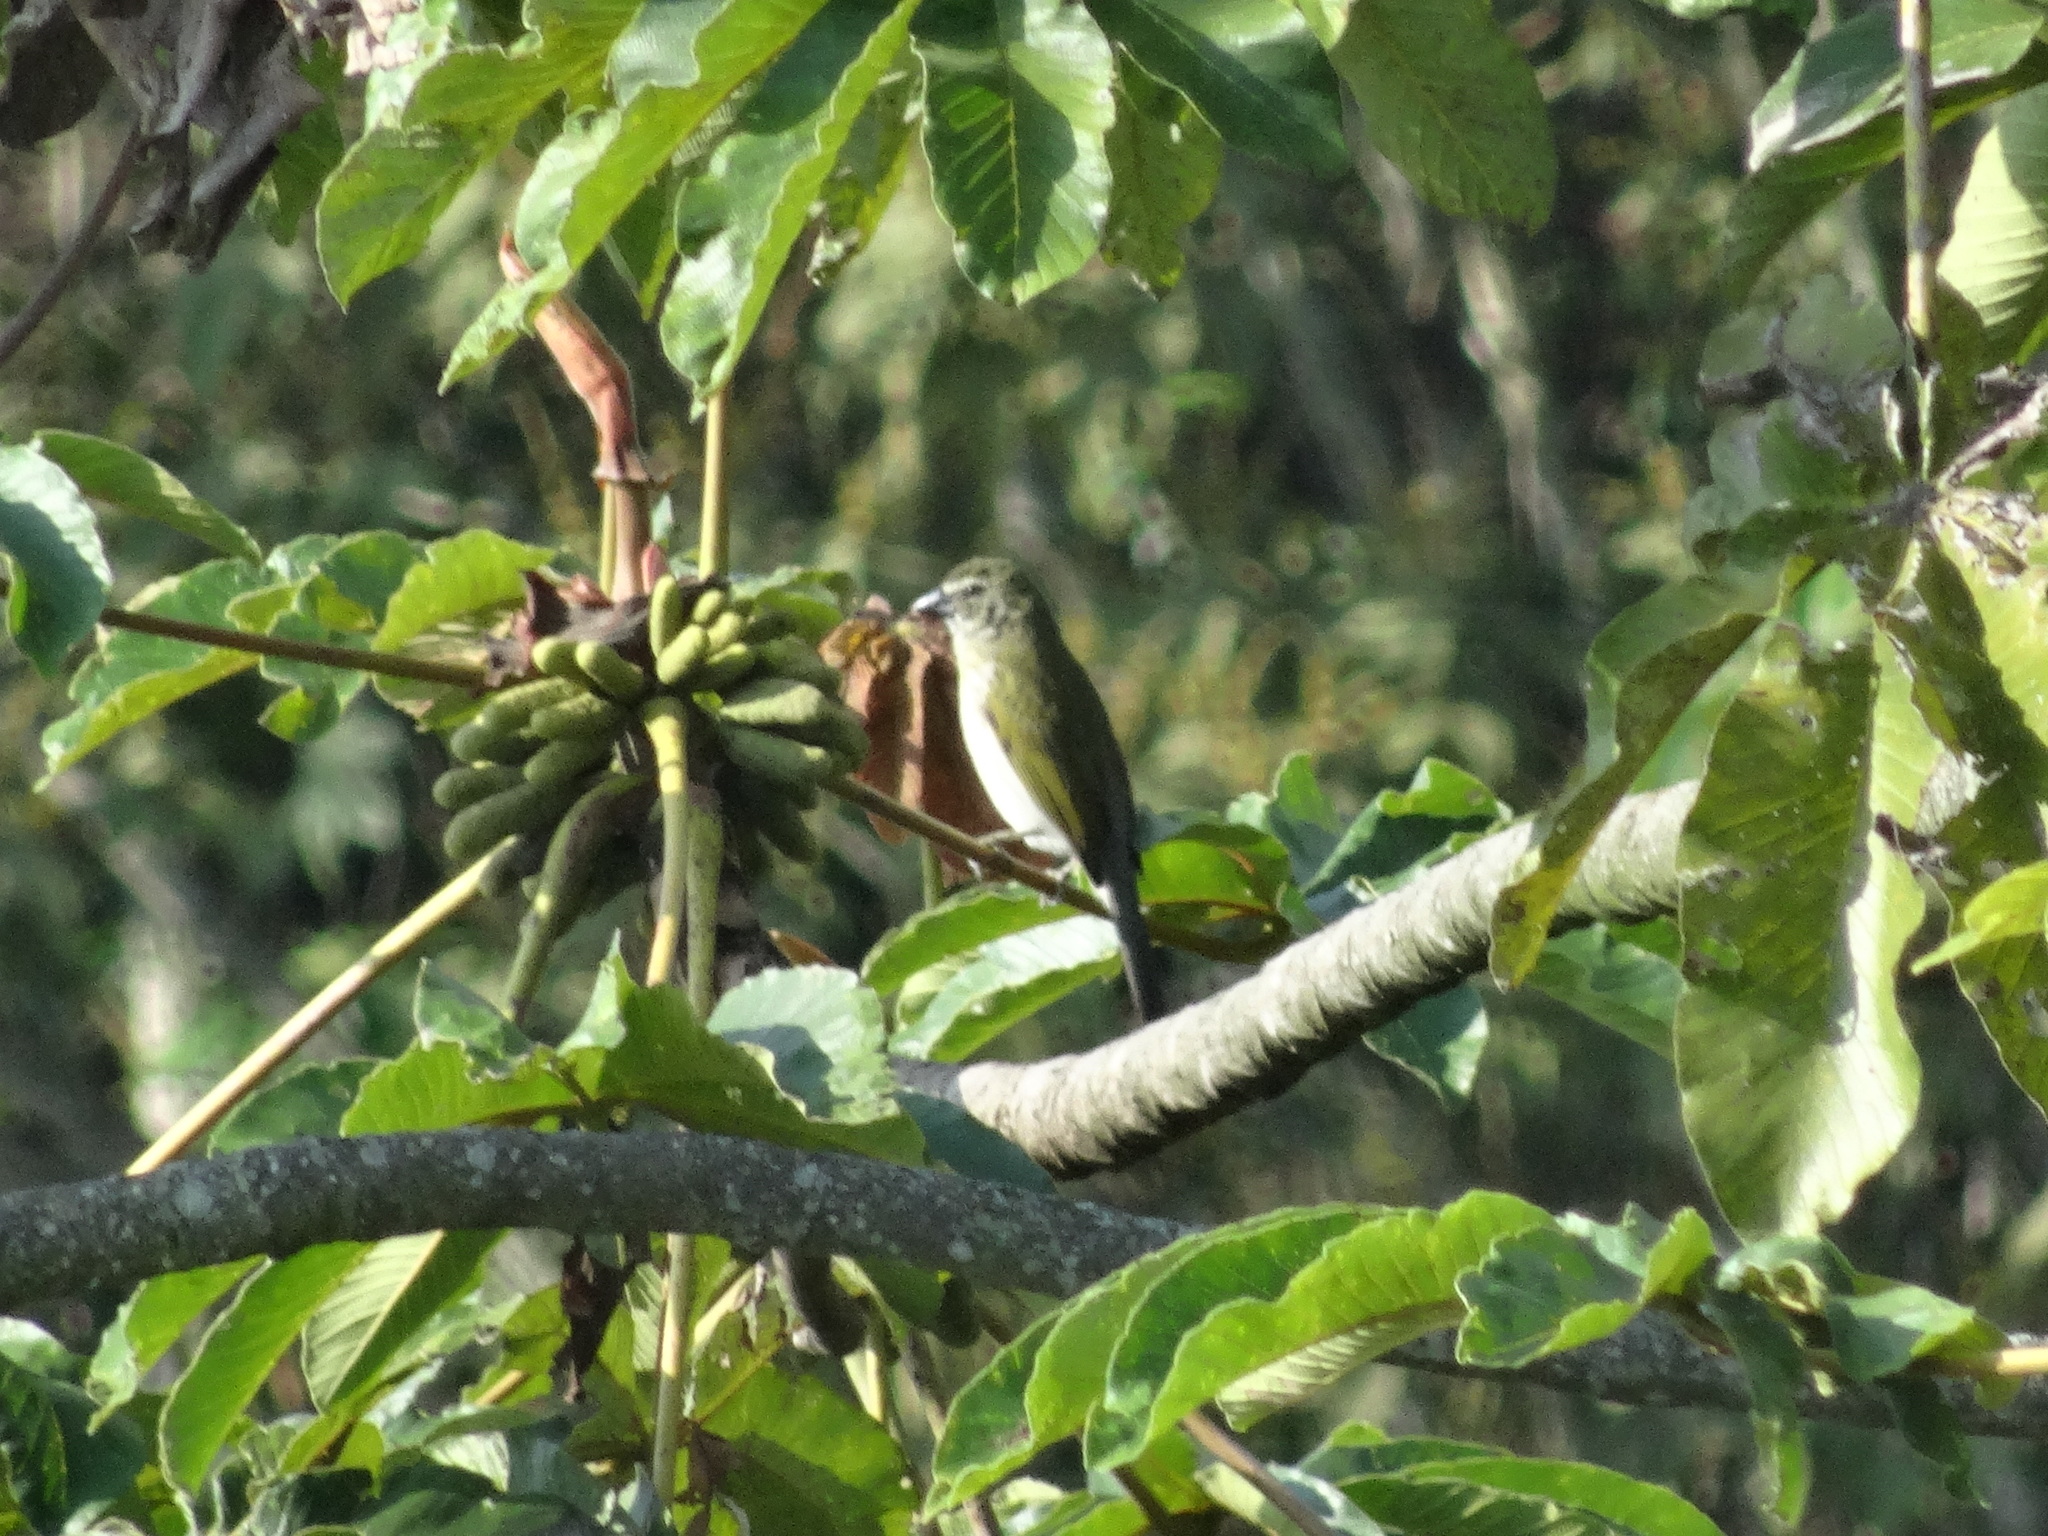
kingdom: Animalia
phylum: Chordata
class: Aves
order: Passeriformes
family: Thraupidae
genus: Saltator
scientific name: Saltator striatipectus
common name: Streaked saltator
